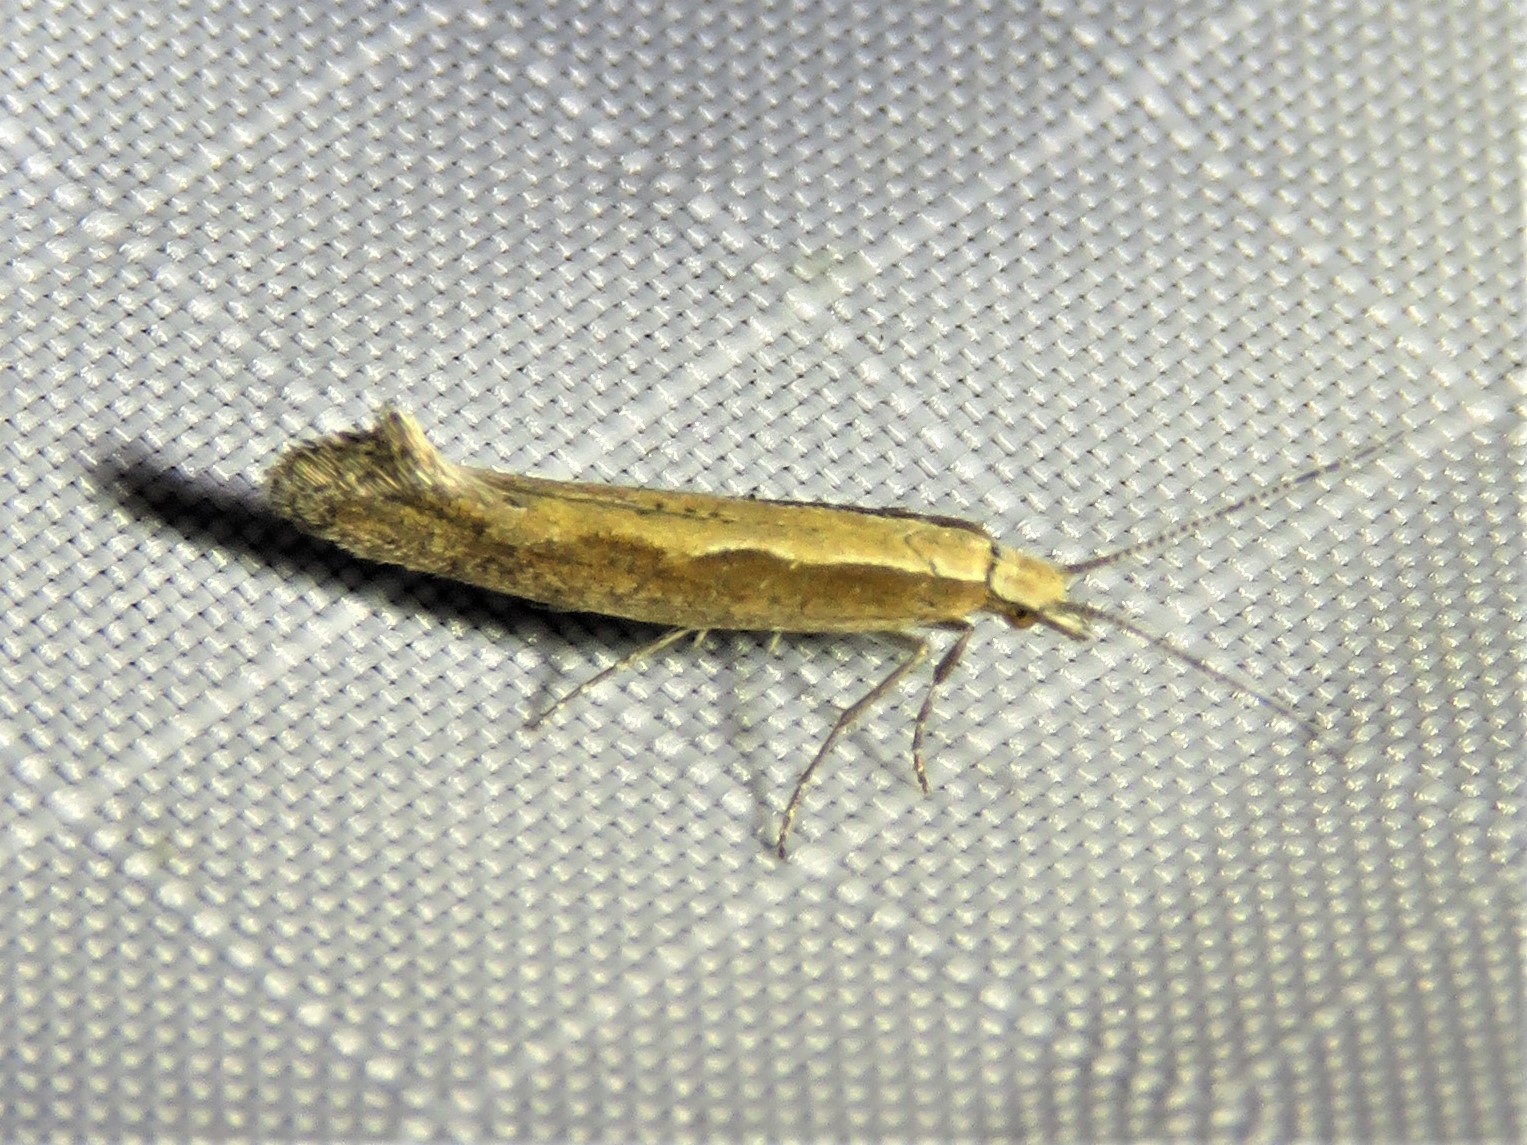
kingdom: Animalia
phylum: Arthropoda
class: Insecta
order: Lepidoptera
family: Plutellidae
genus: Plutella
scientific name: Plutella xylostella
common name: Diamond-back moth
